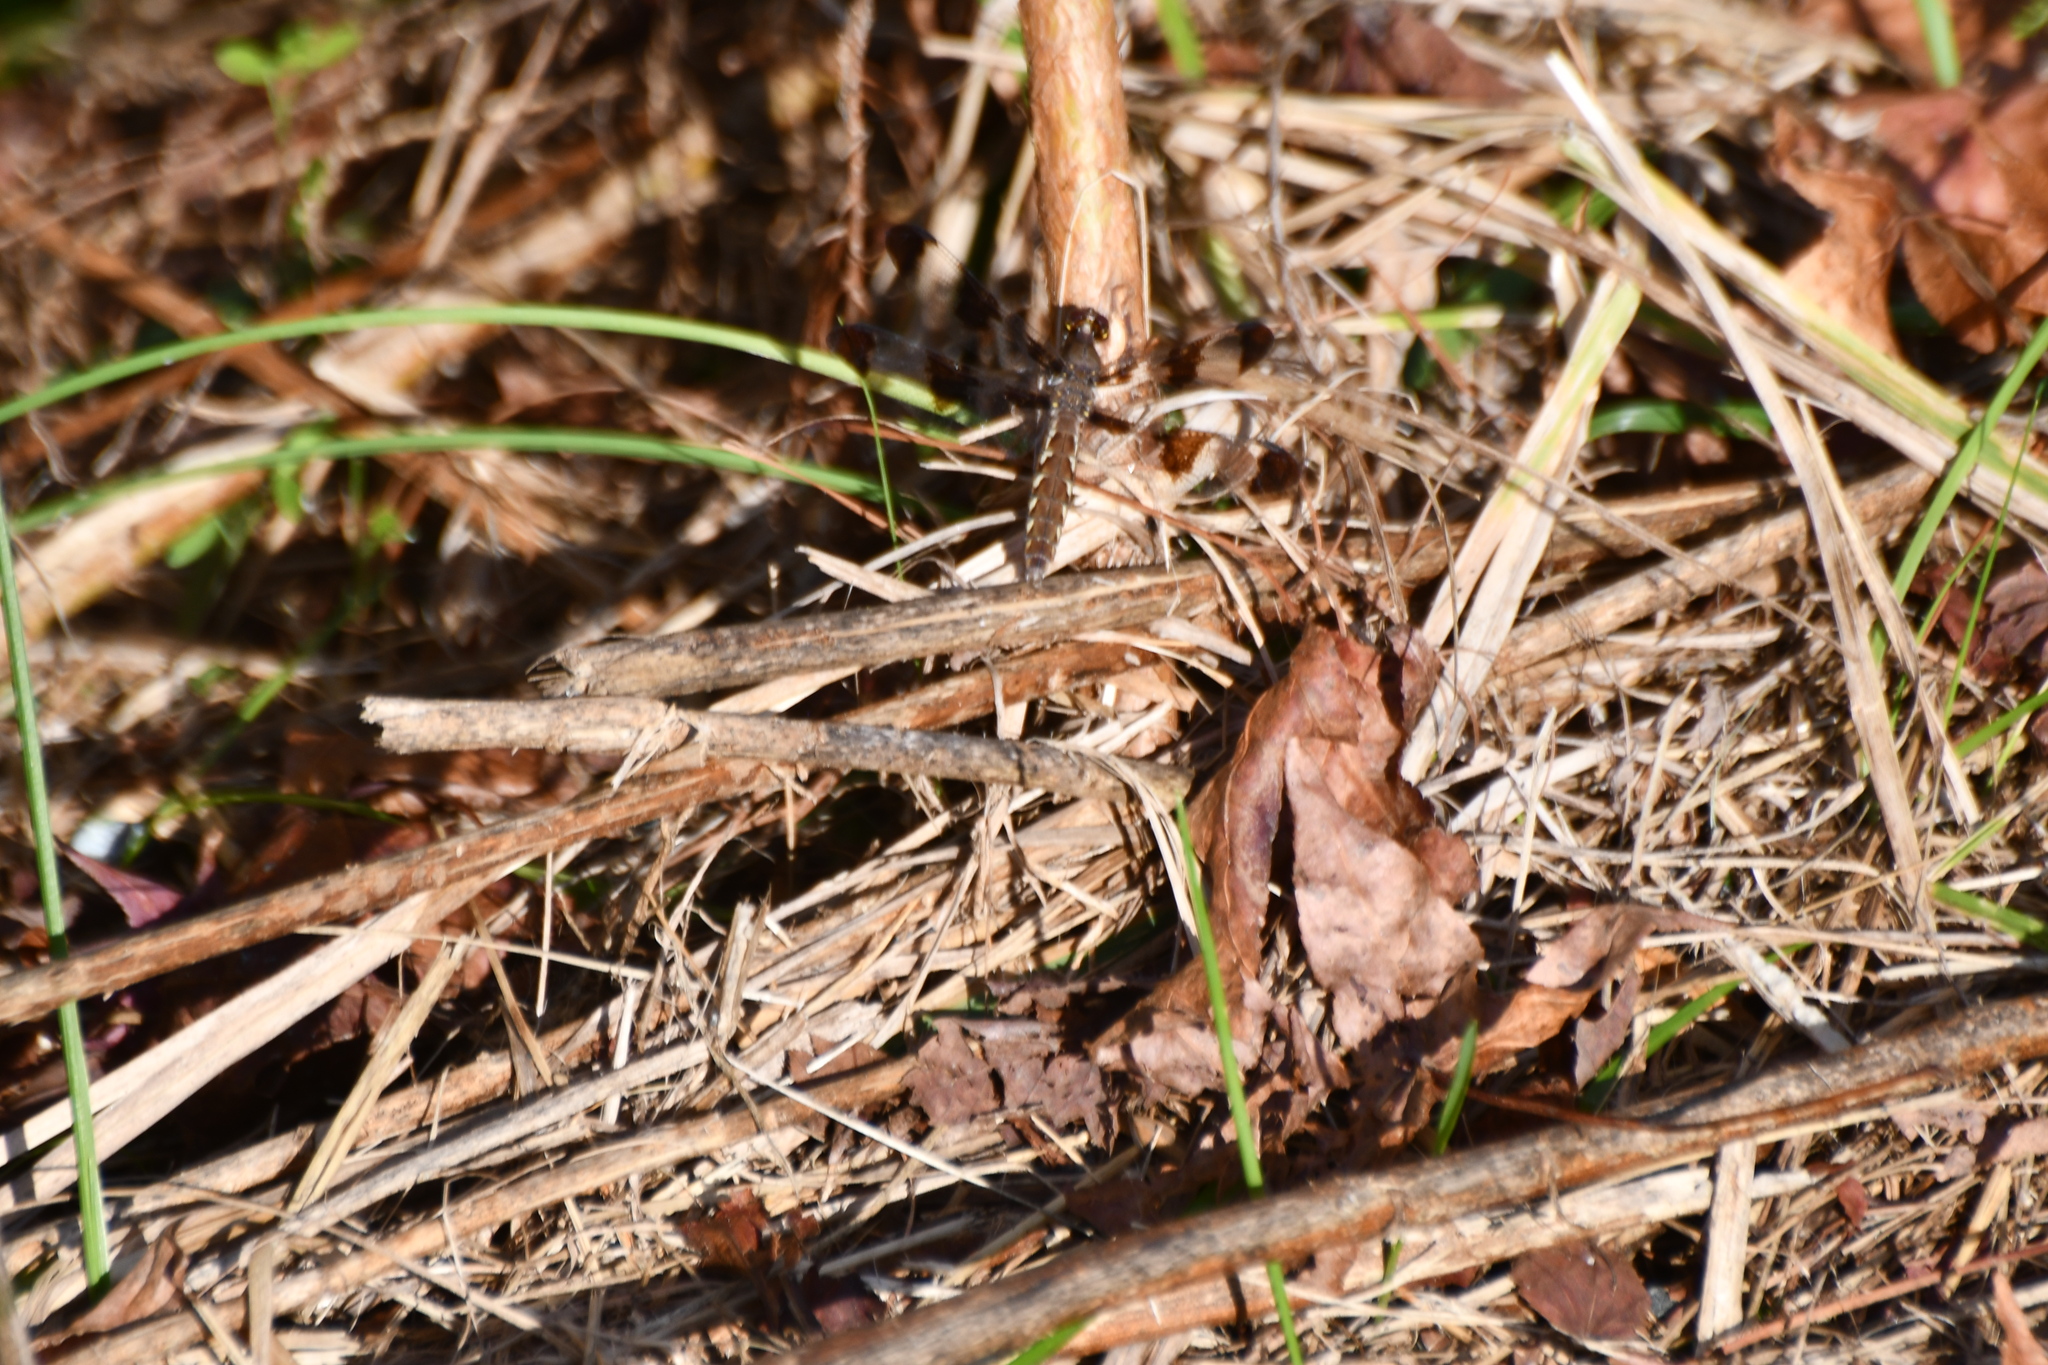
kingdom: Animalia
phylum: Arthropoda
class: Insecta
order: Odonata
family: Libellulidae
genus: Plathemis
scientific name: Plathemis lydia
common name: Common whitetail
